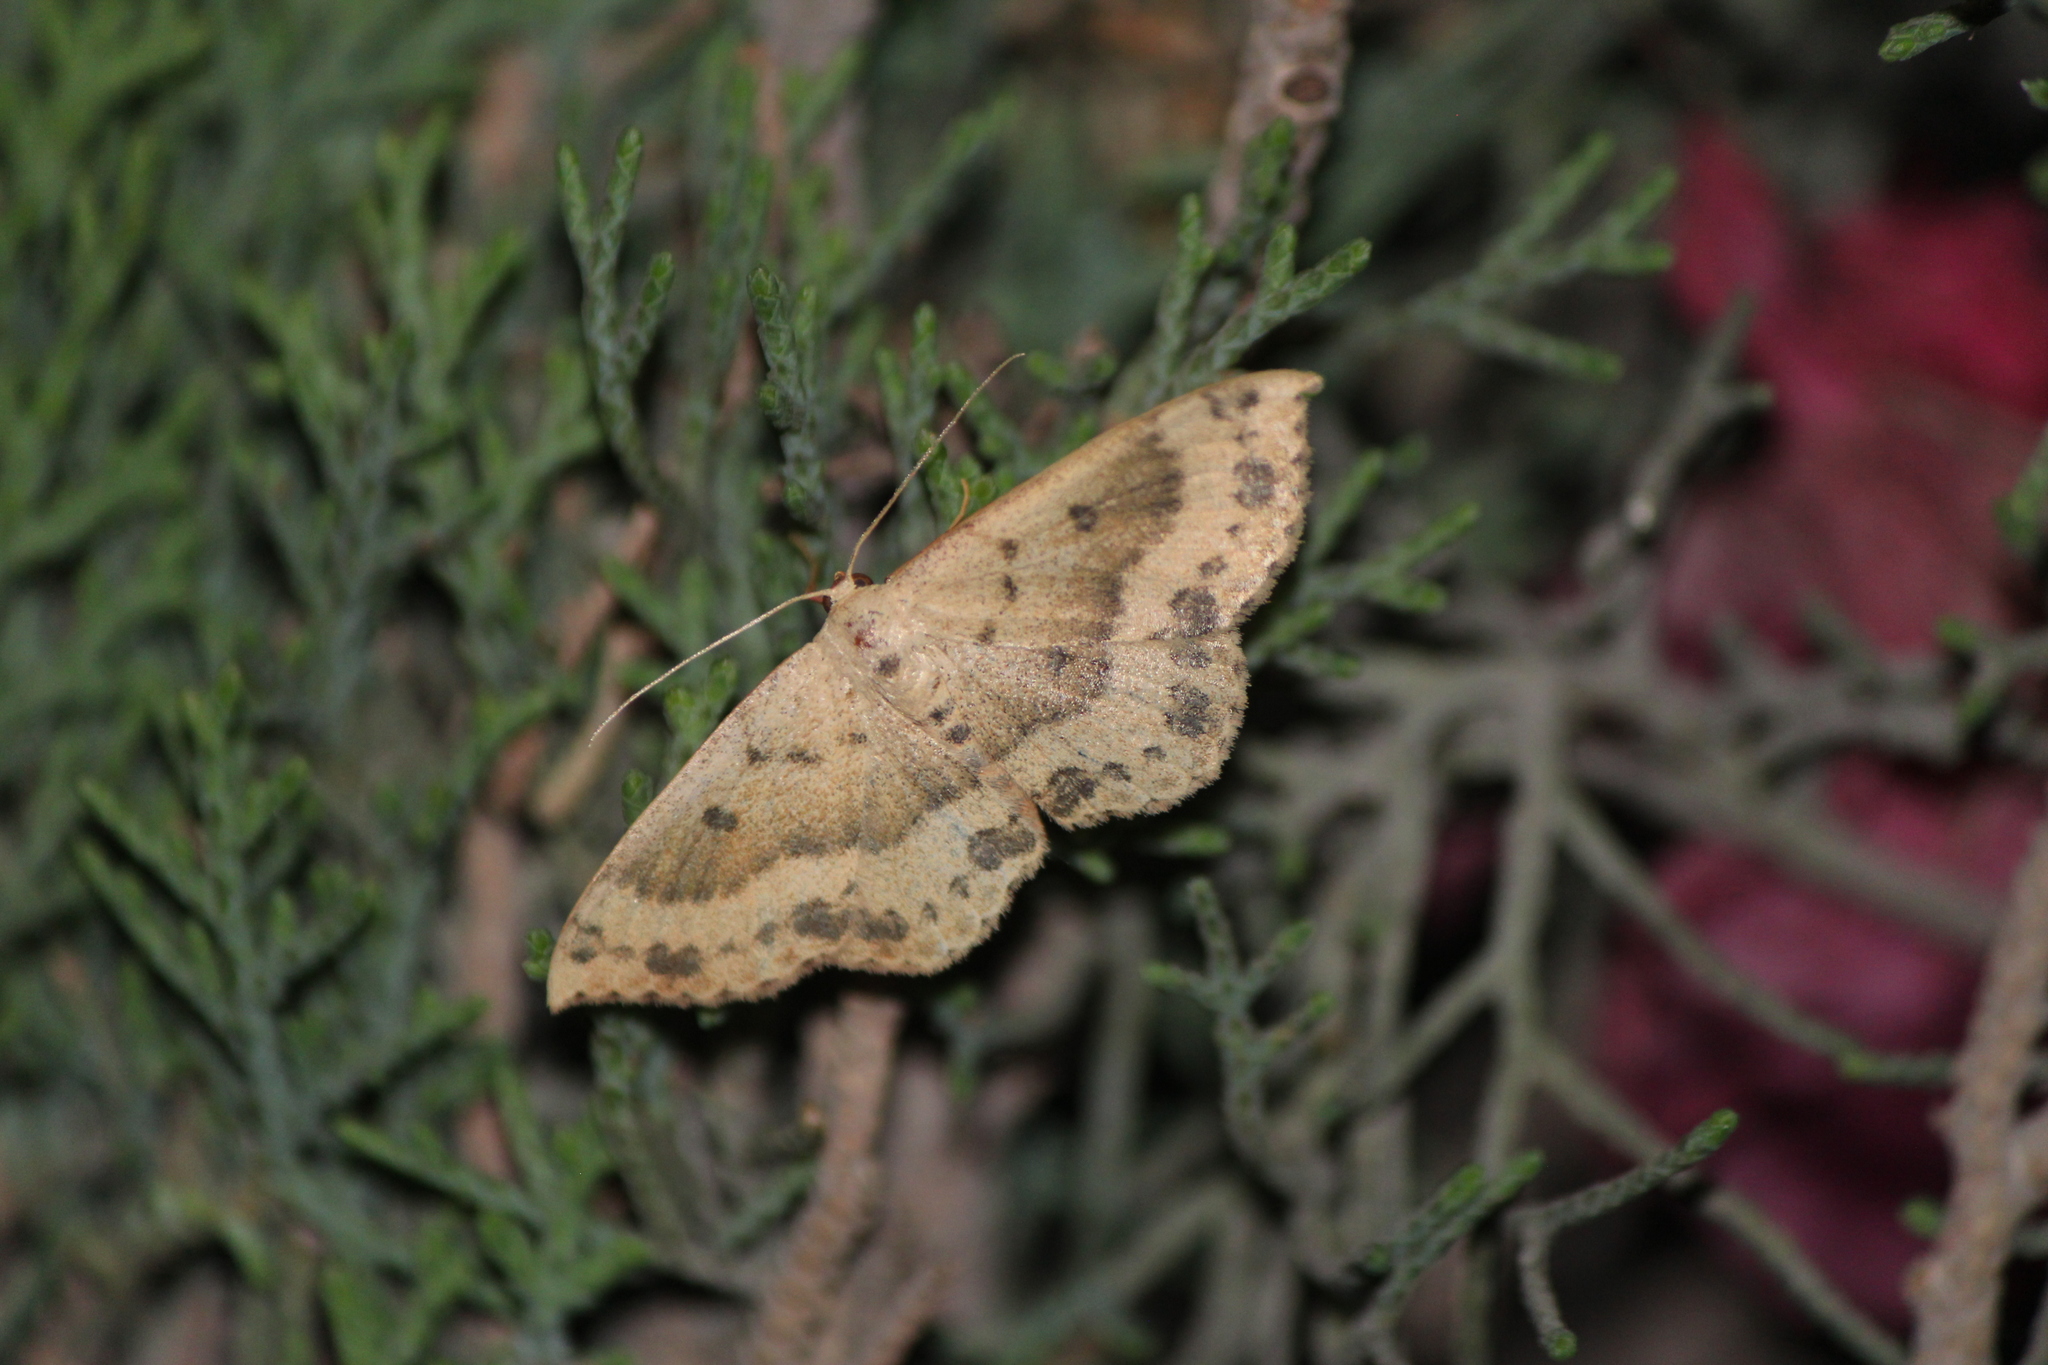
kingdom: Animalia
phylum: Arthropoda
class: Insecta
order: Lepidoptera
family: Geometridae
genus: Semaeopus
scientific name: Semaeopus ella
